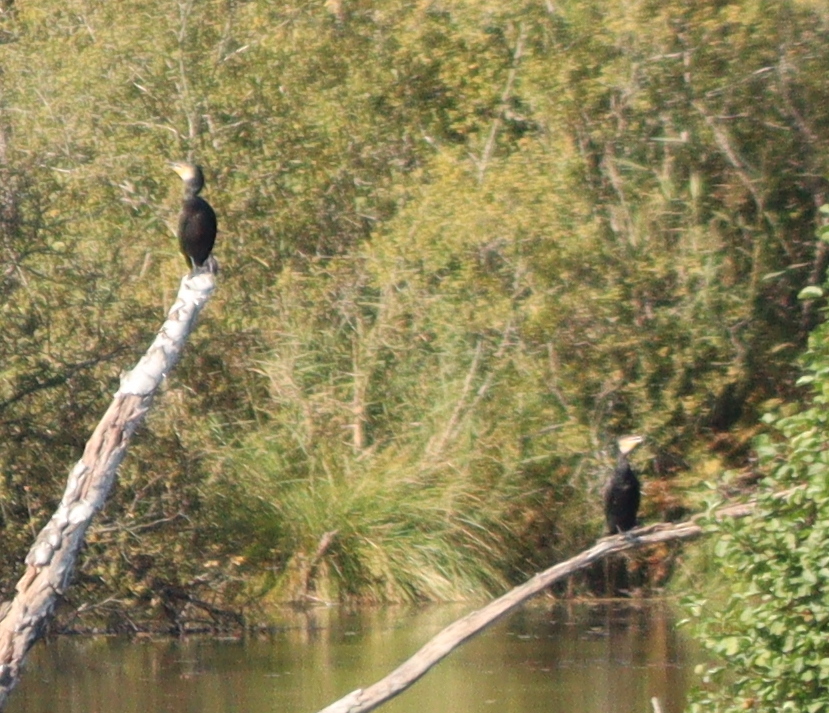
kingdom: Animalia
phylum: Chordata
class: Aves
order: Suliformes
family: Phalacrocoracidae
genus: Phalacrocorax
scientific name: Phalacrocorax carbo
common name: Great cormorant
